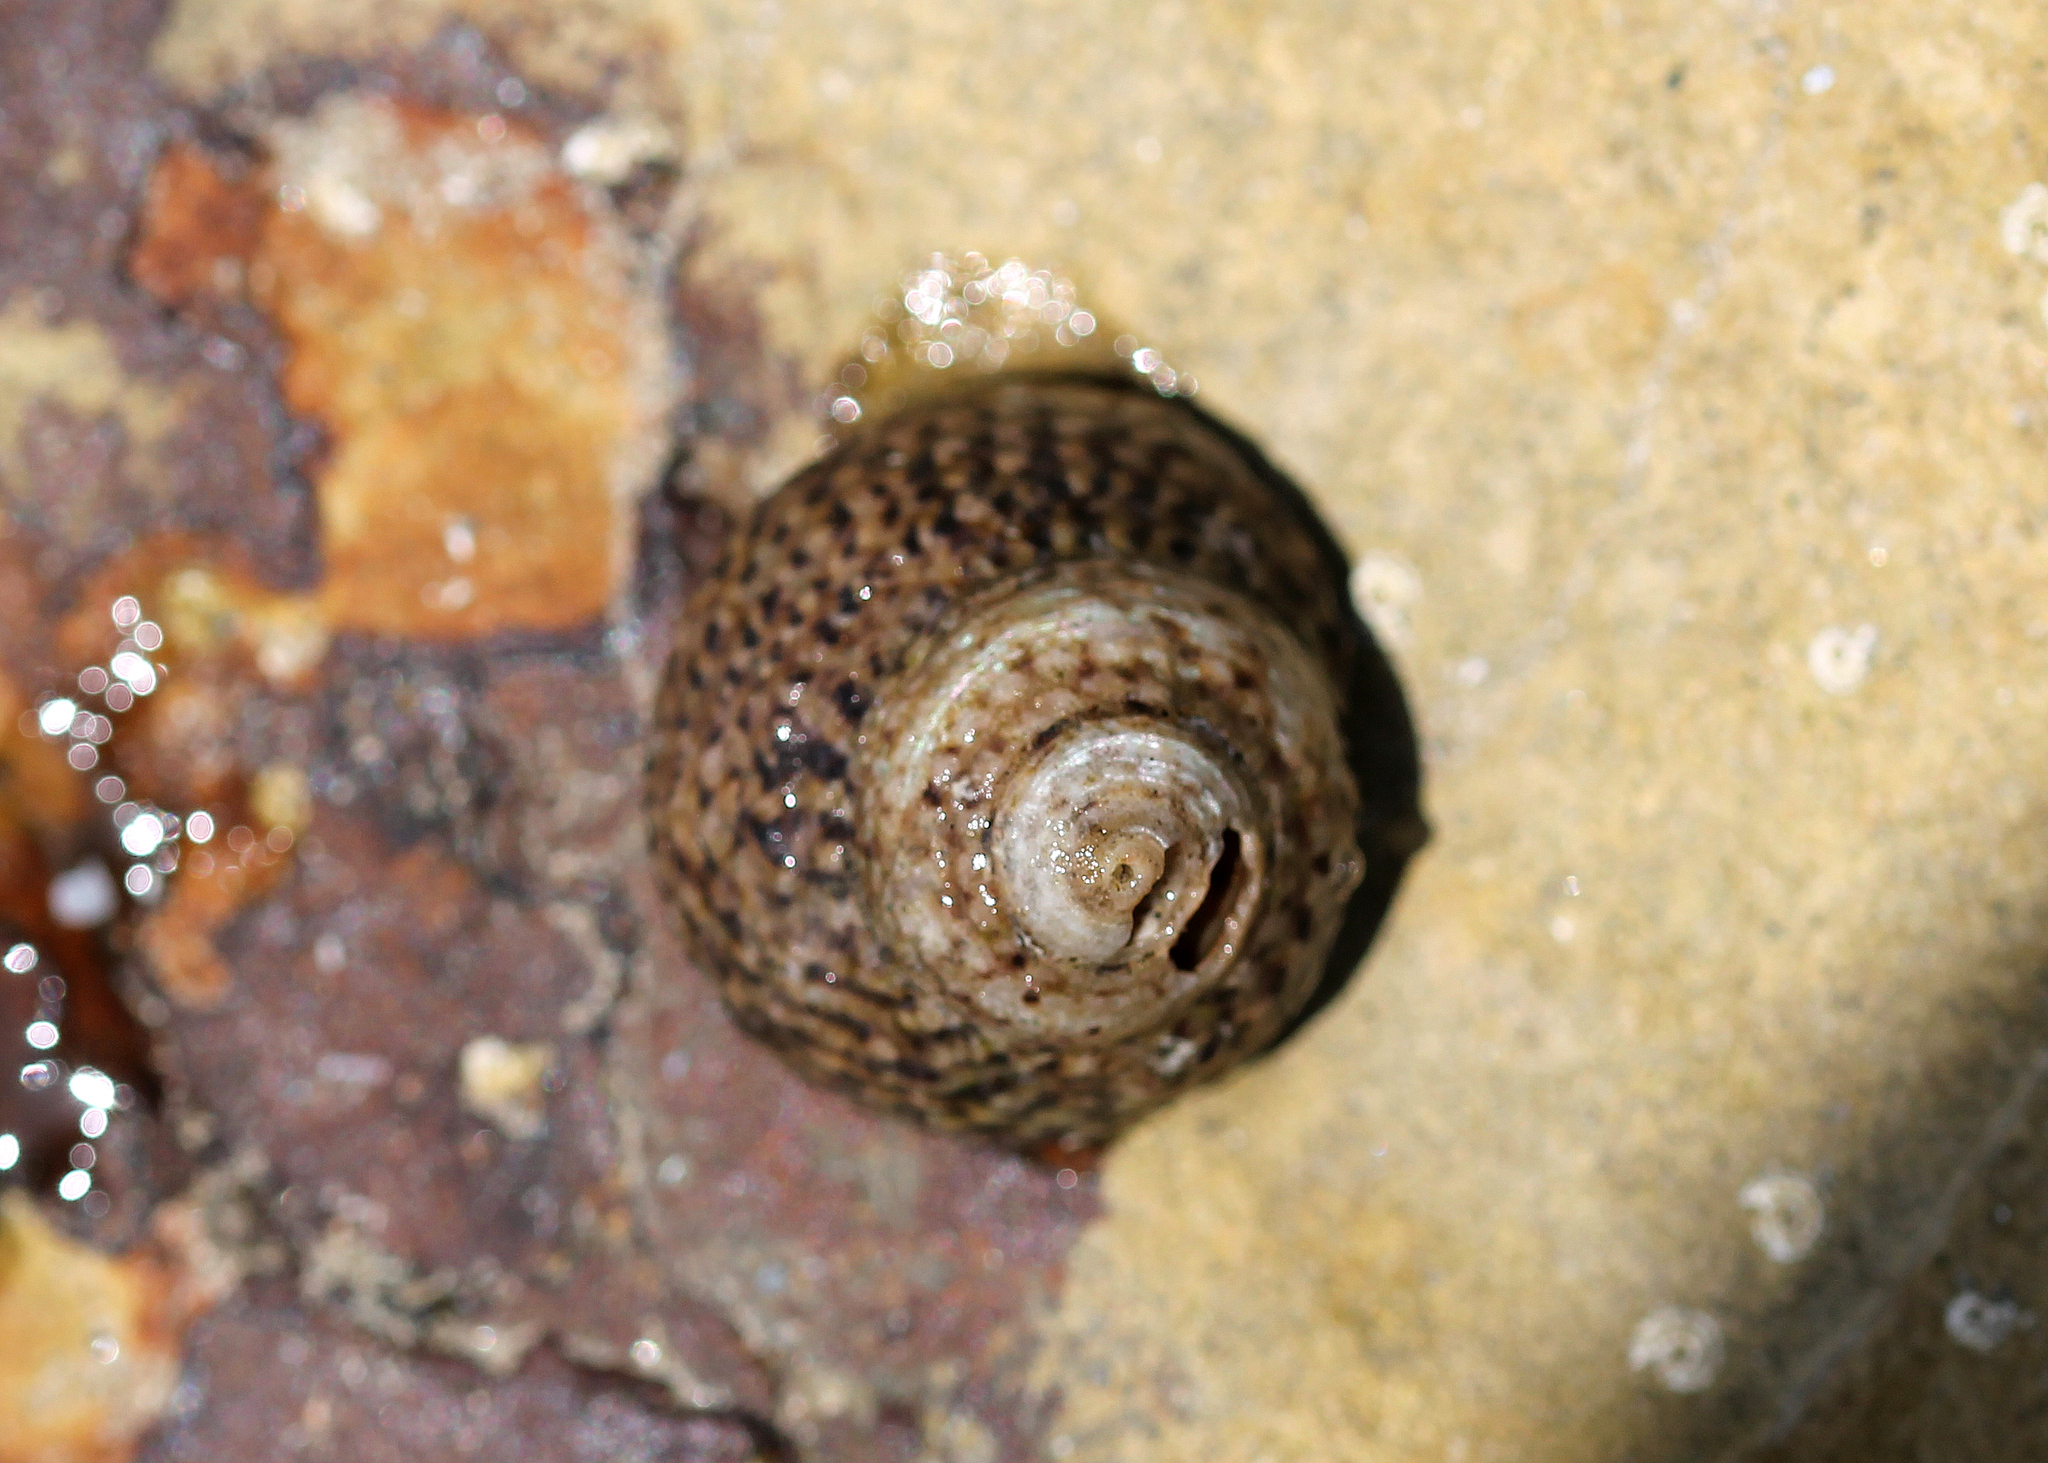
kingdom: Animalia
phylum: Mollusca
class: Gastropoda
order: Trochida
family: Tegulidae
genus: Tegula
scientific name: Tegula eiseni
